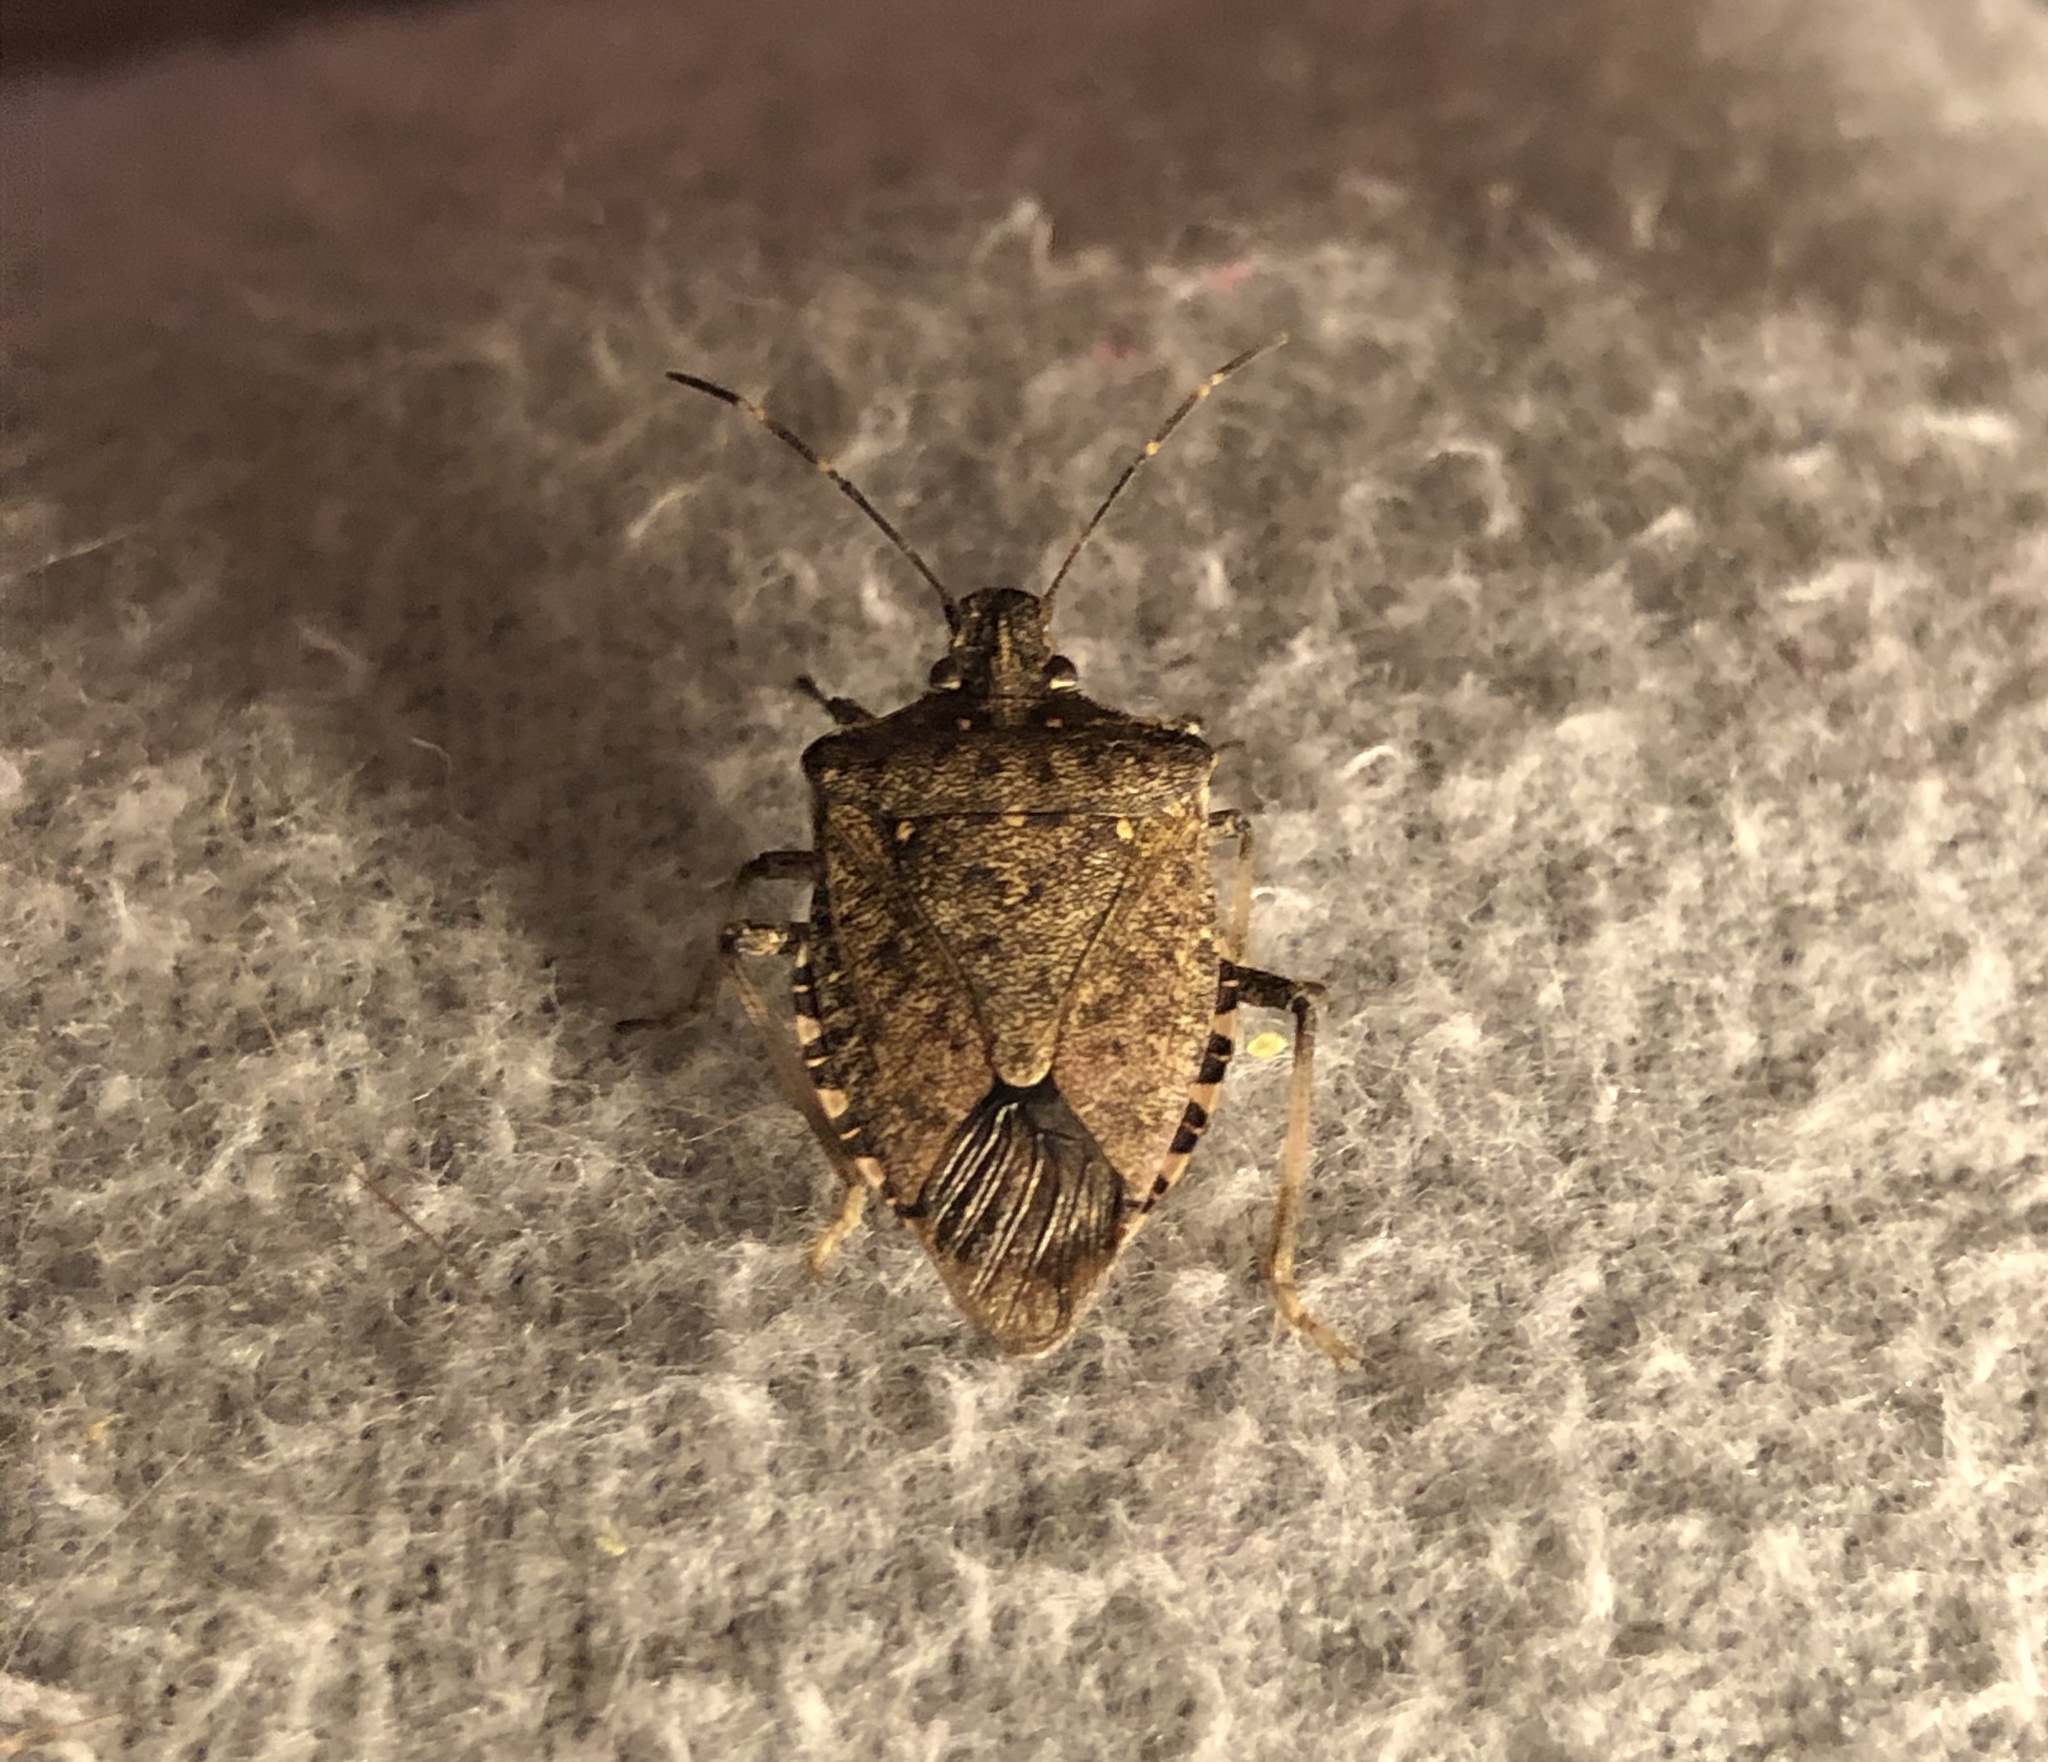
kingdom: Animalia
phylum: Arthropoda
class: Insecta
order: Hemiptera
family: Pentatomidae
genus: Halyomorpha
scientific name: Halyomorpha halys
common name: Brown marmorated stink bug
